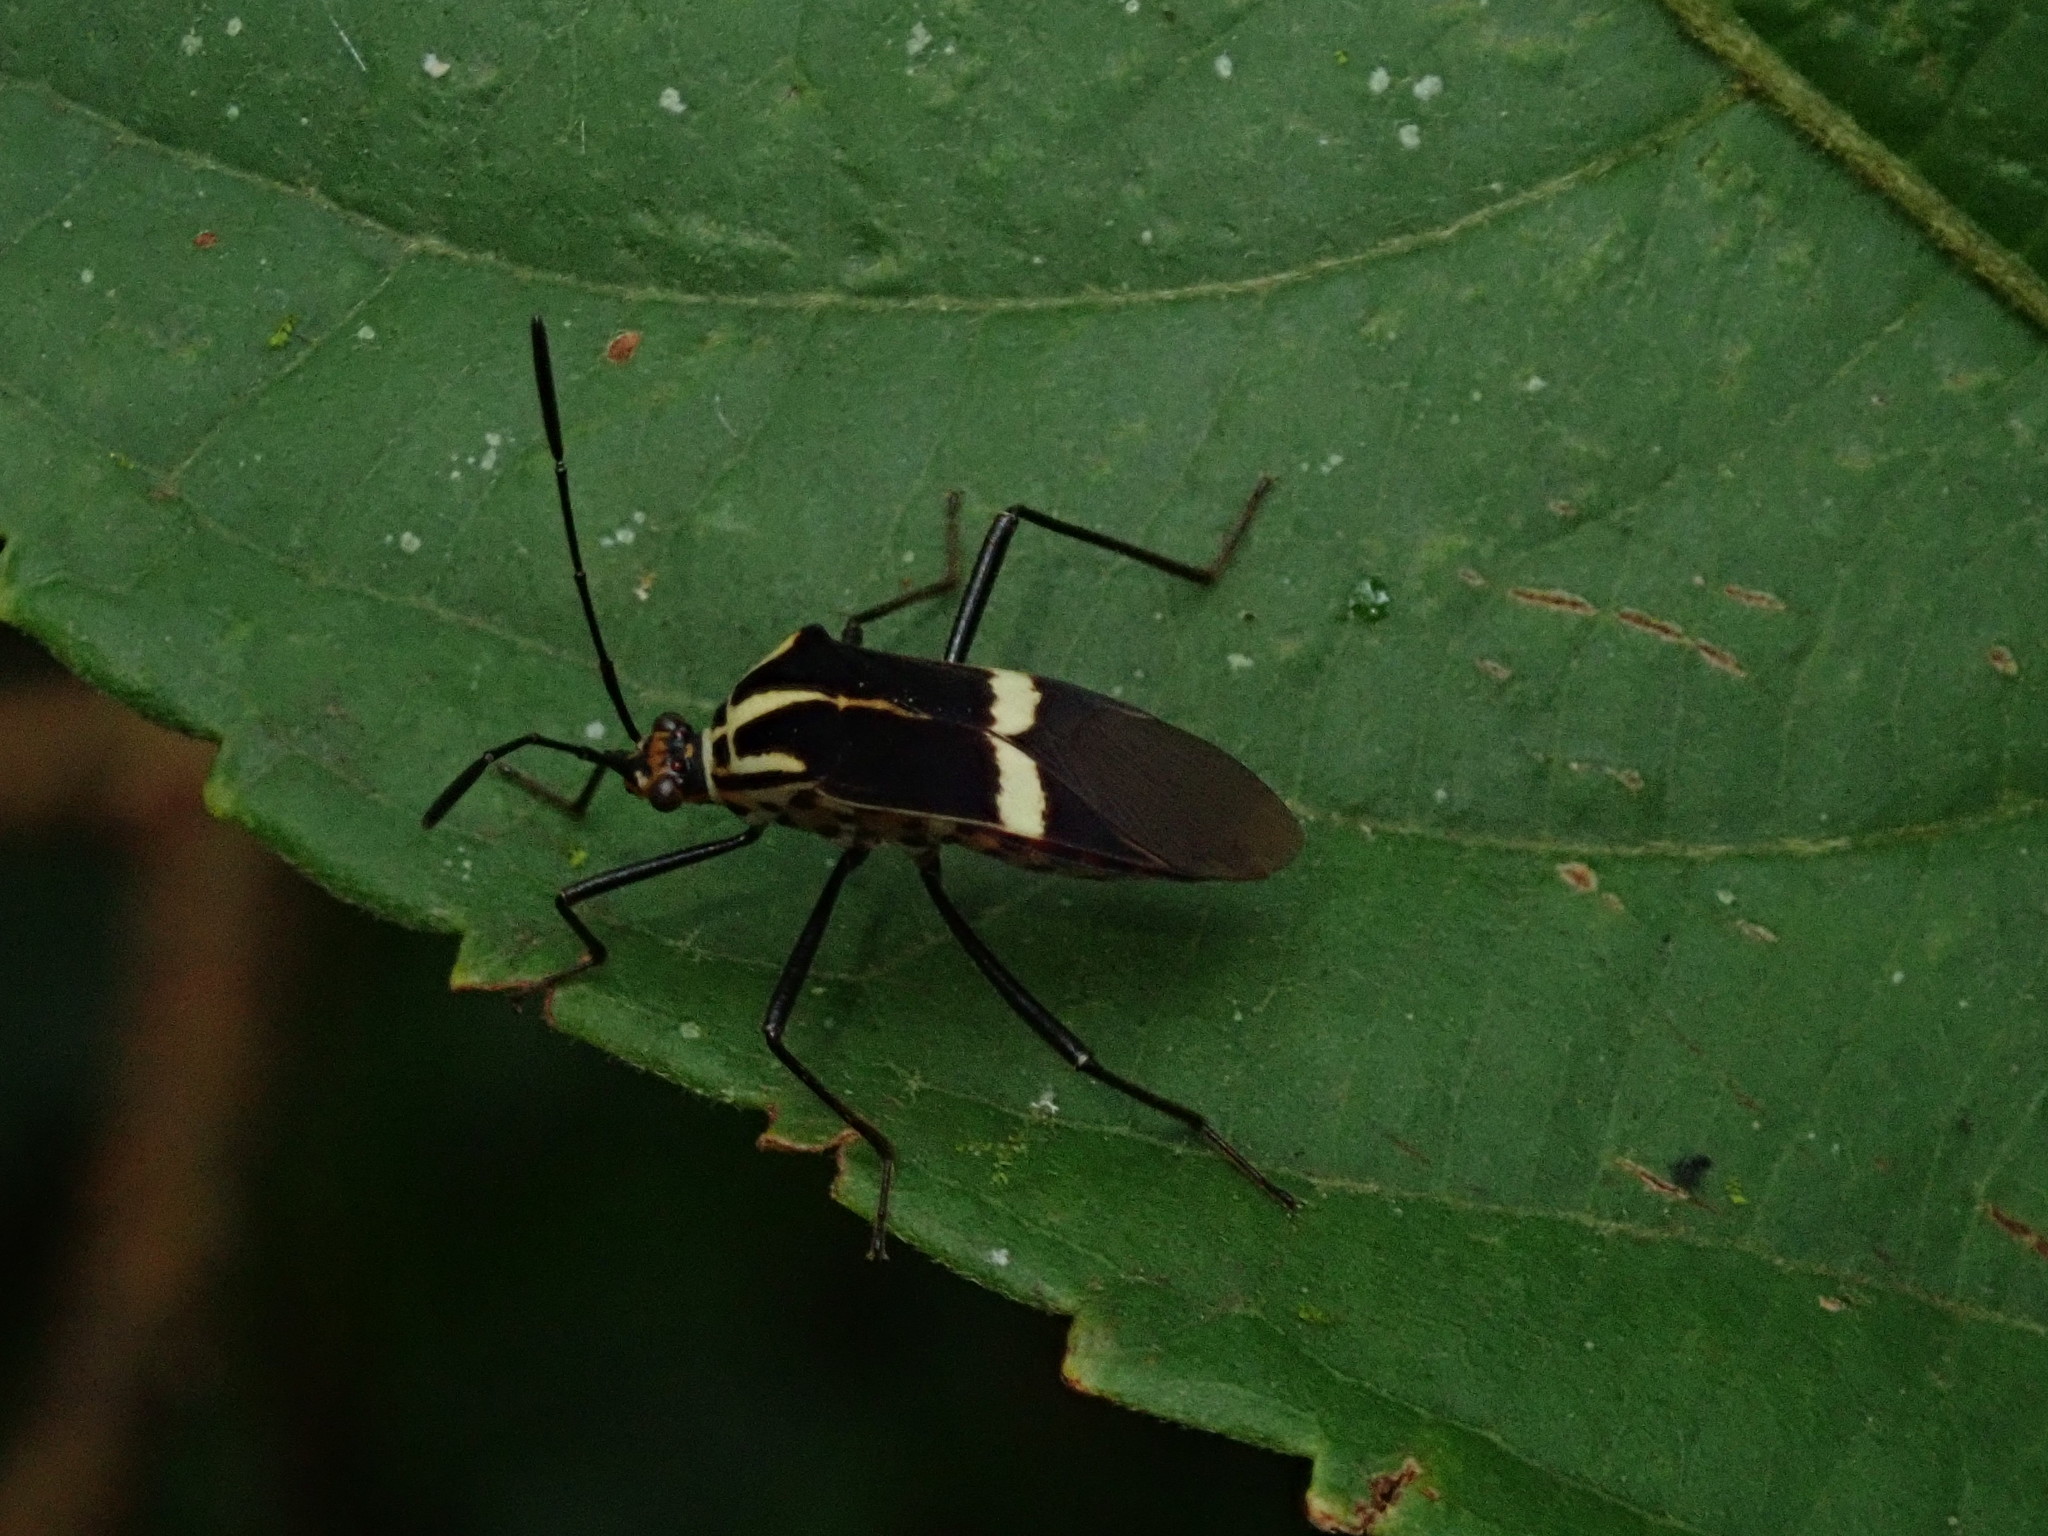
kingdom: Animalia
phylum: Arthropoda
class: Insecta
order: Hemiptera
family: Coreidae
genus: Hypselonotus
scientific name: Hypselonotus interruptus
